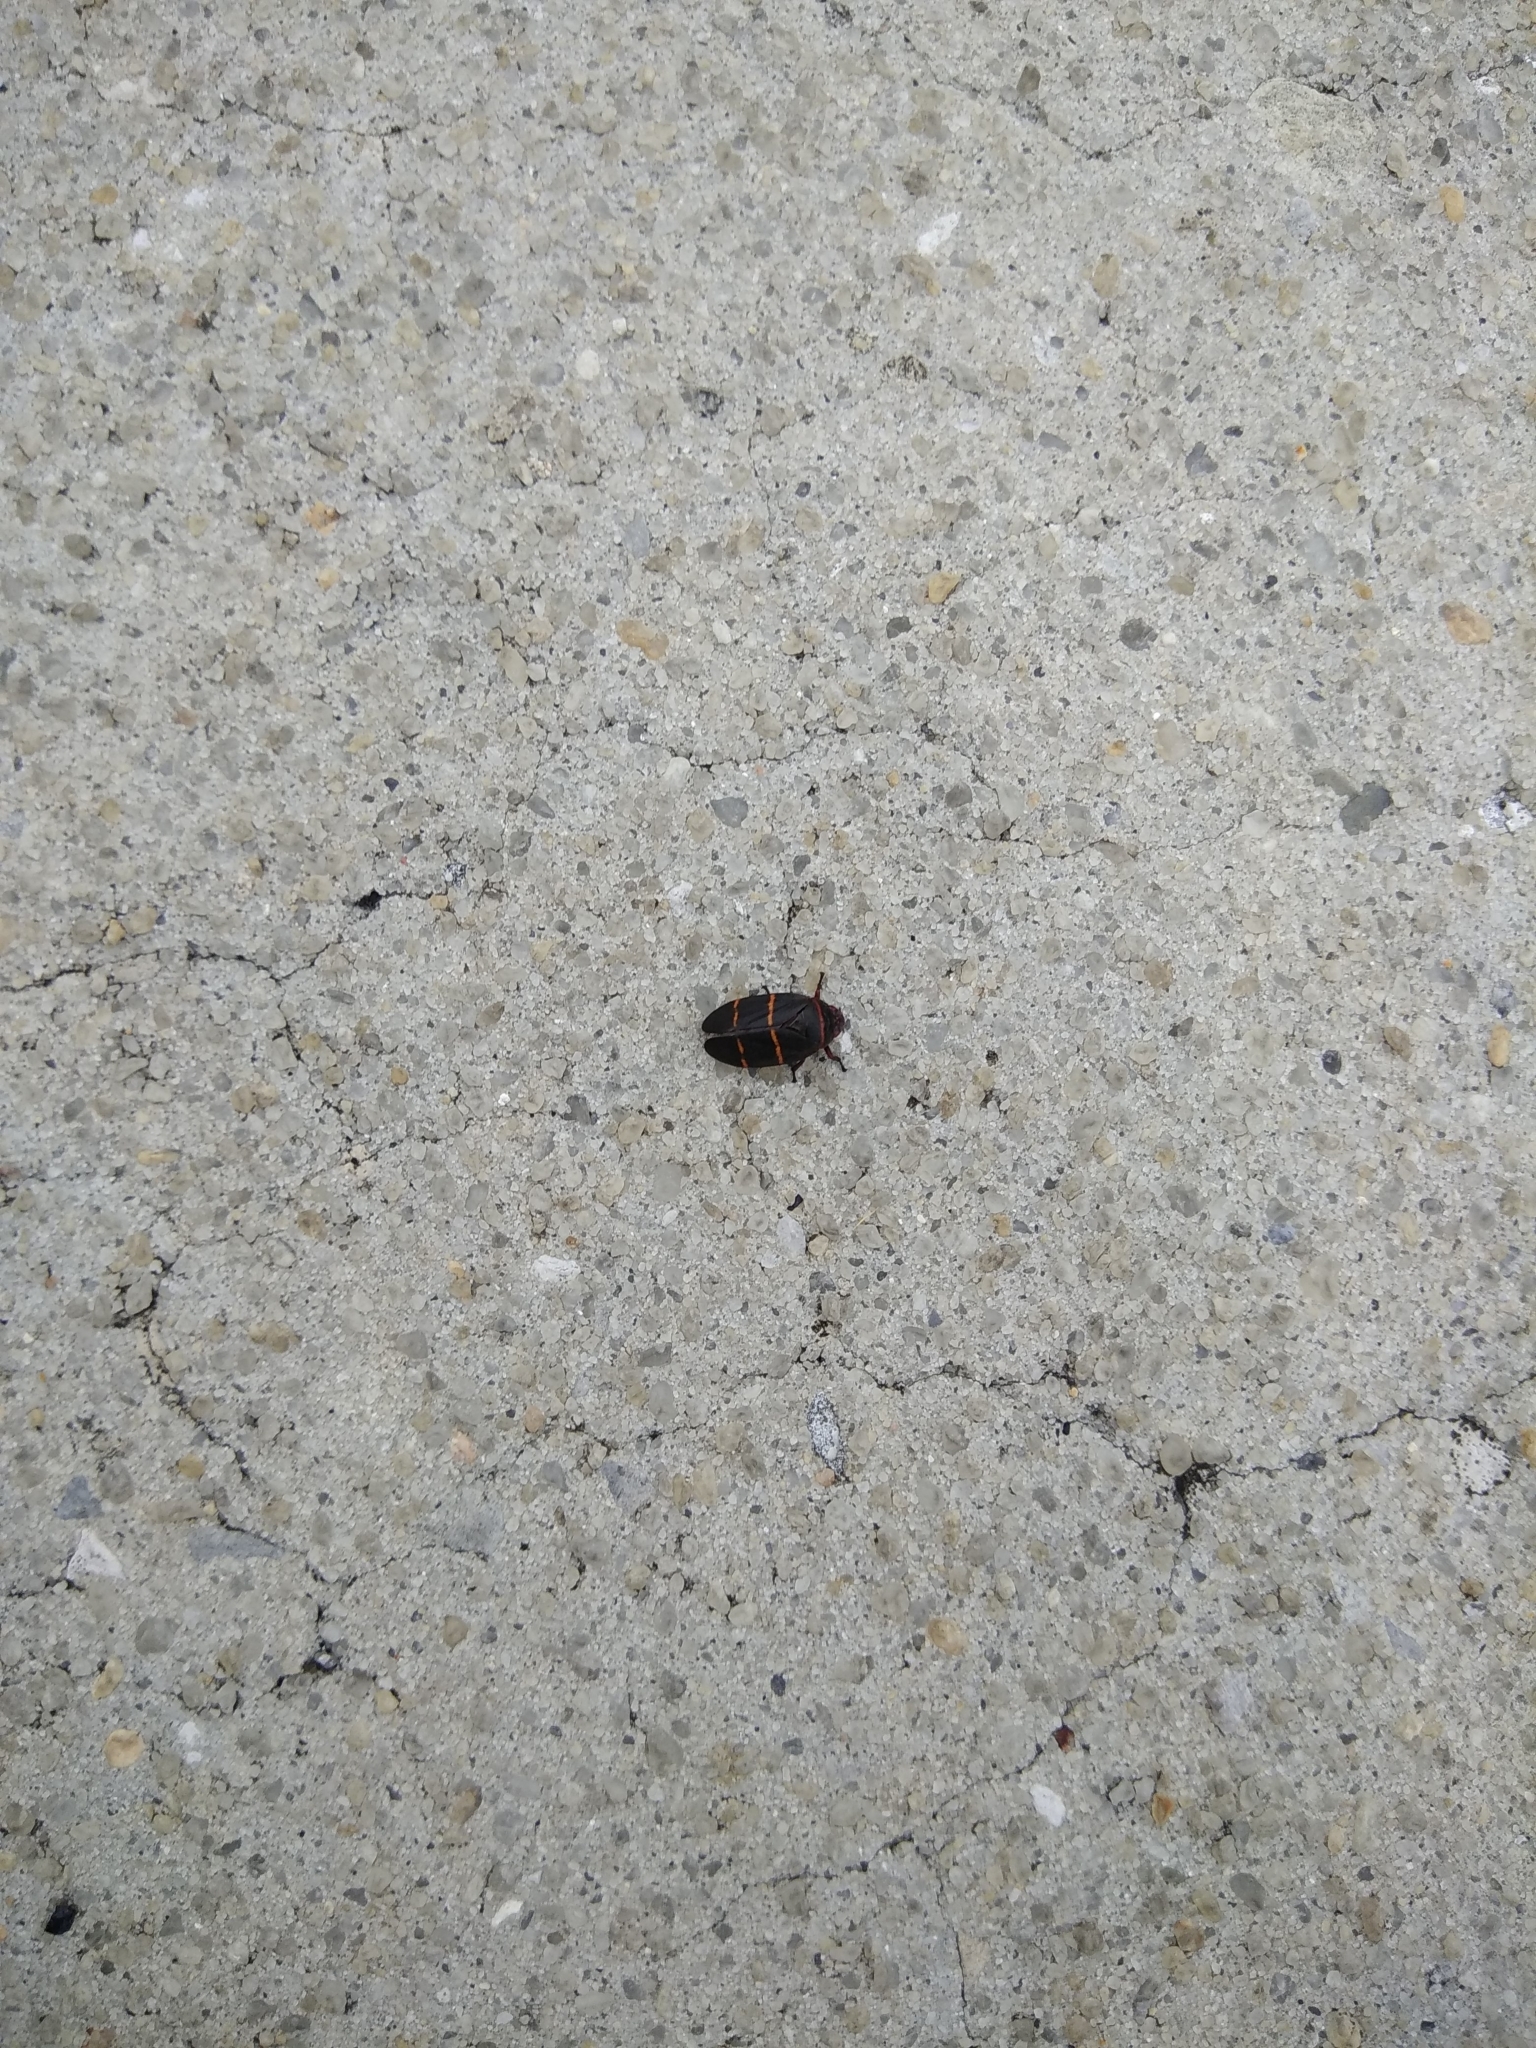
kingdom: Animalia
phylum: Arthropoda
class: Insecta
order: Hemiptera
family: Cercopidae
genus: Prosapia
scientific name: Prosapia bicincta
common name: Twolined spittlebug
